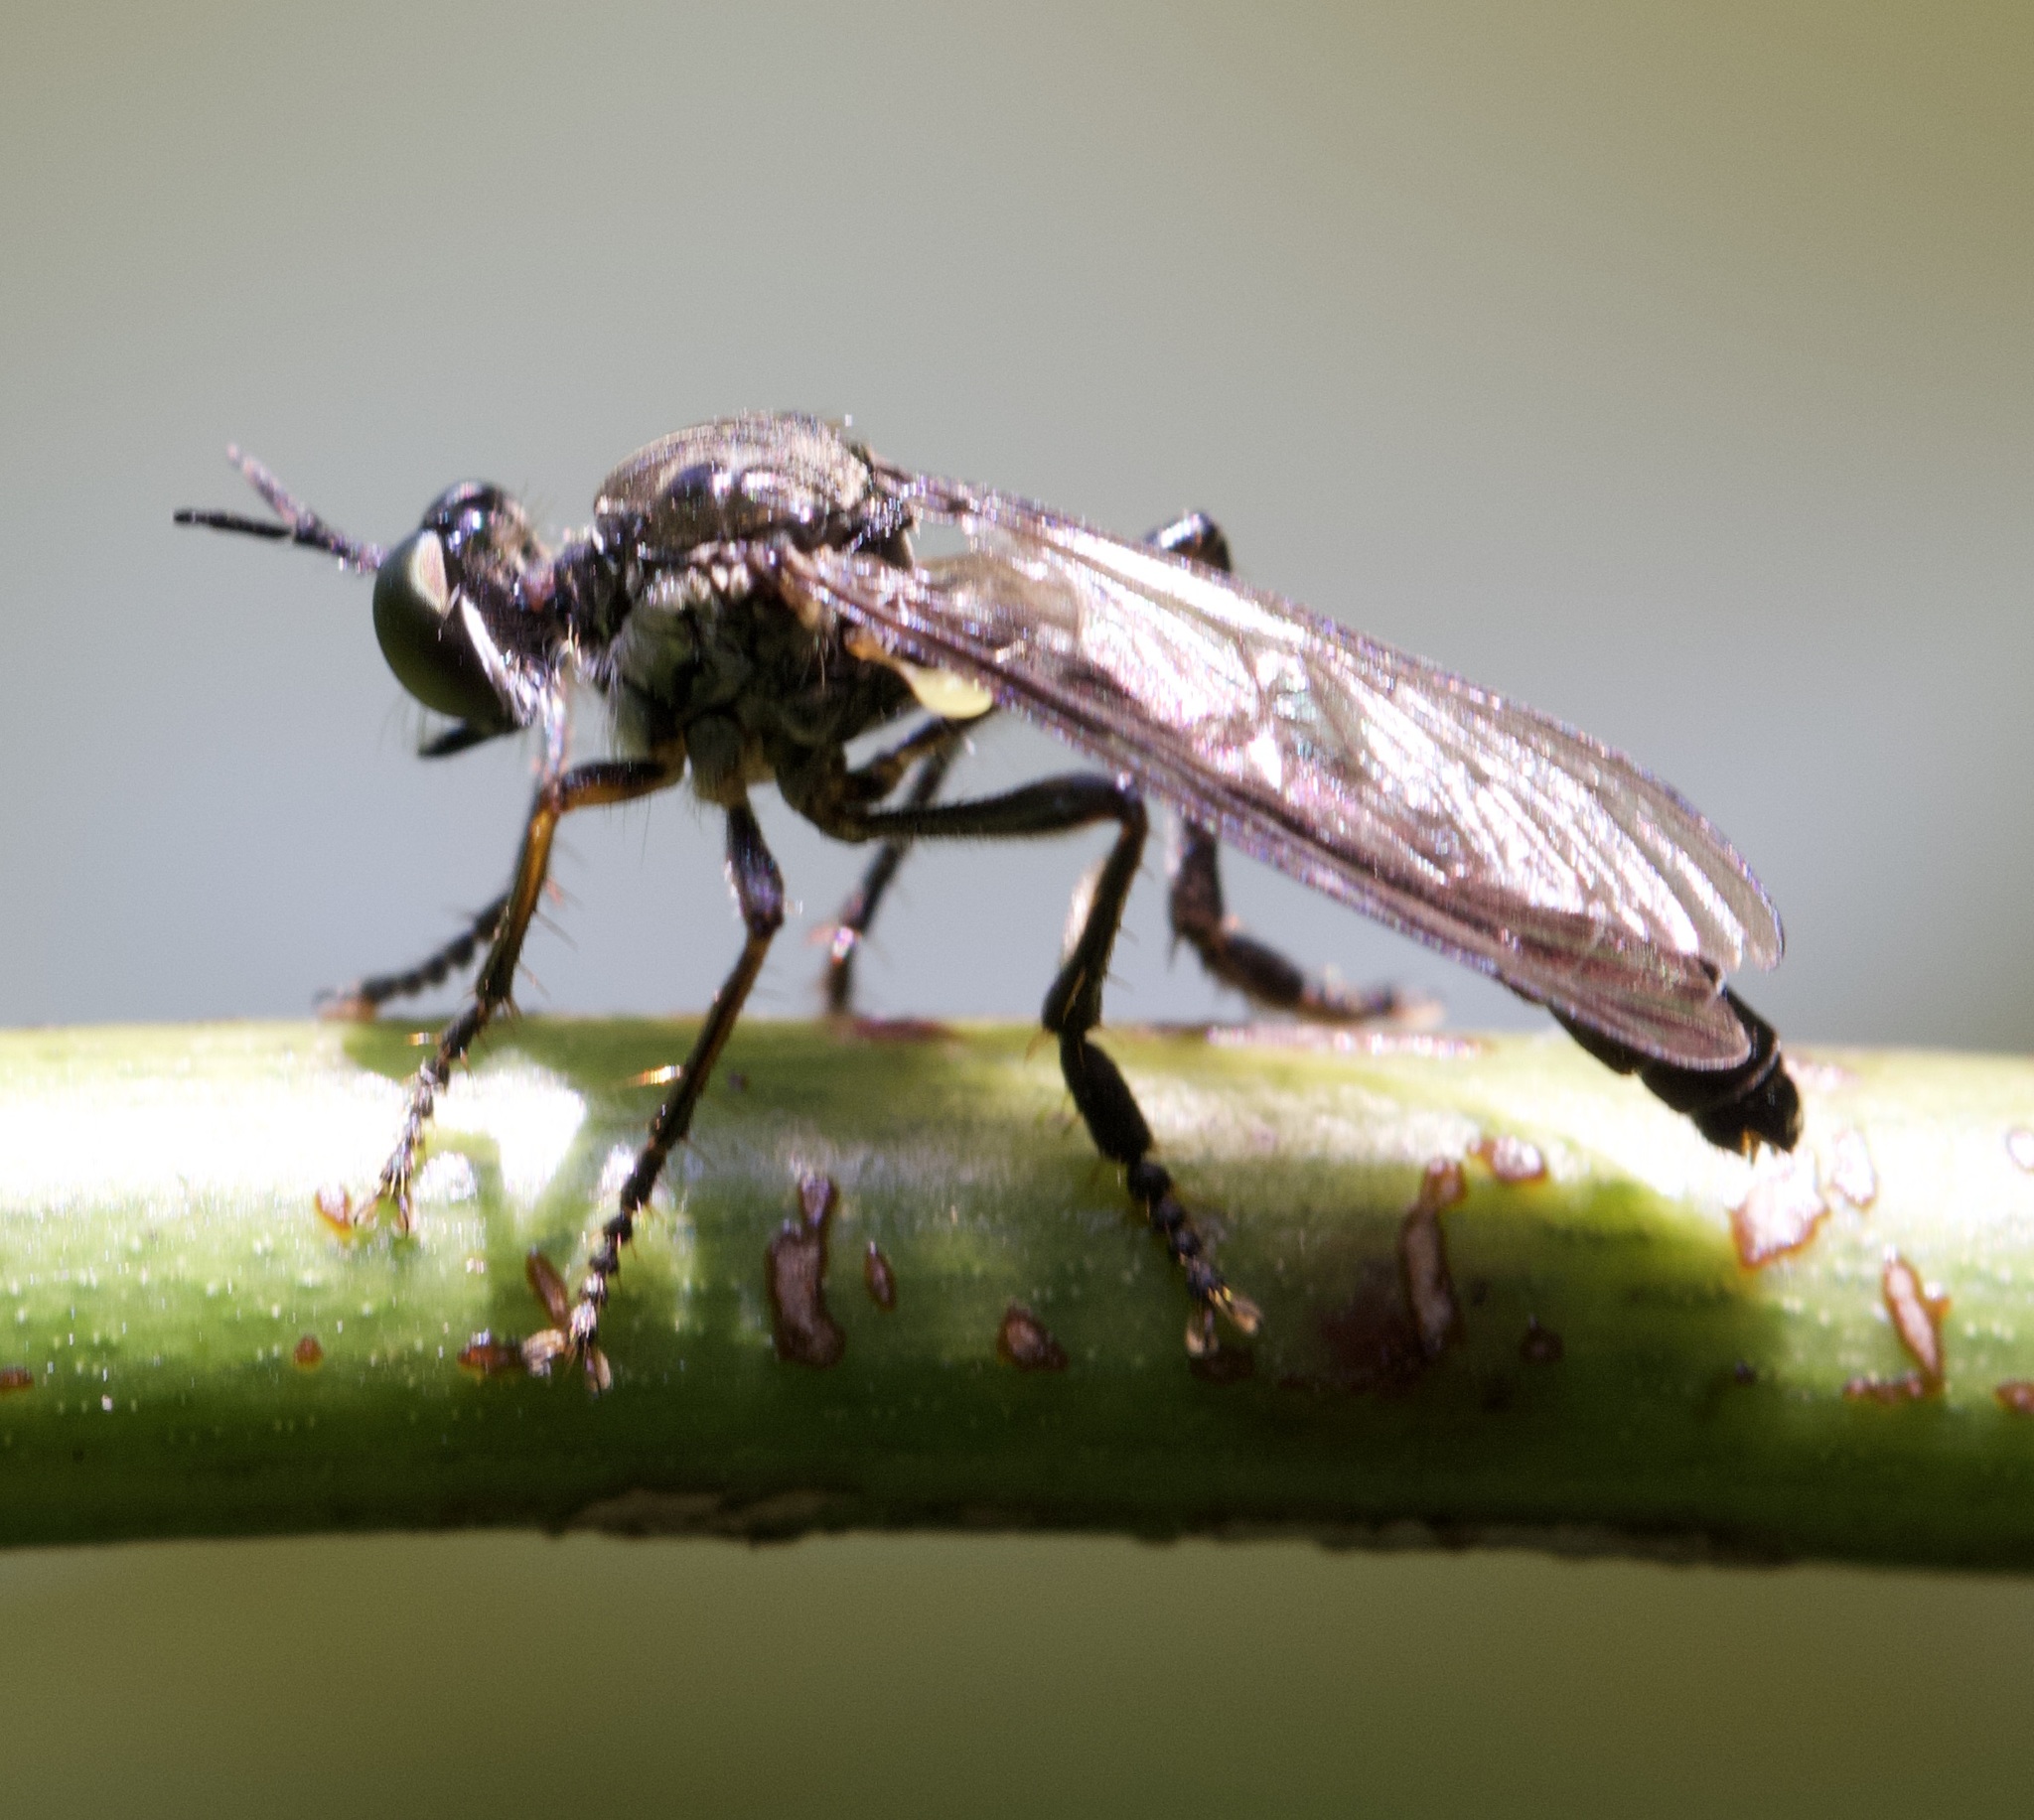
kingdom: Animalia
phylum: Arthropoda
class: Insecta
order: Diptera
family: Asilidae
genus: Dioctria
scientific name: Dioctria hyalipennis
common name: Stripe-legged robberfly
